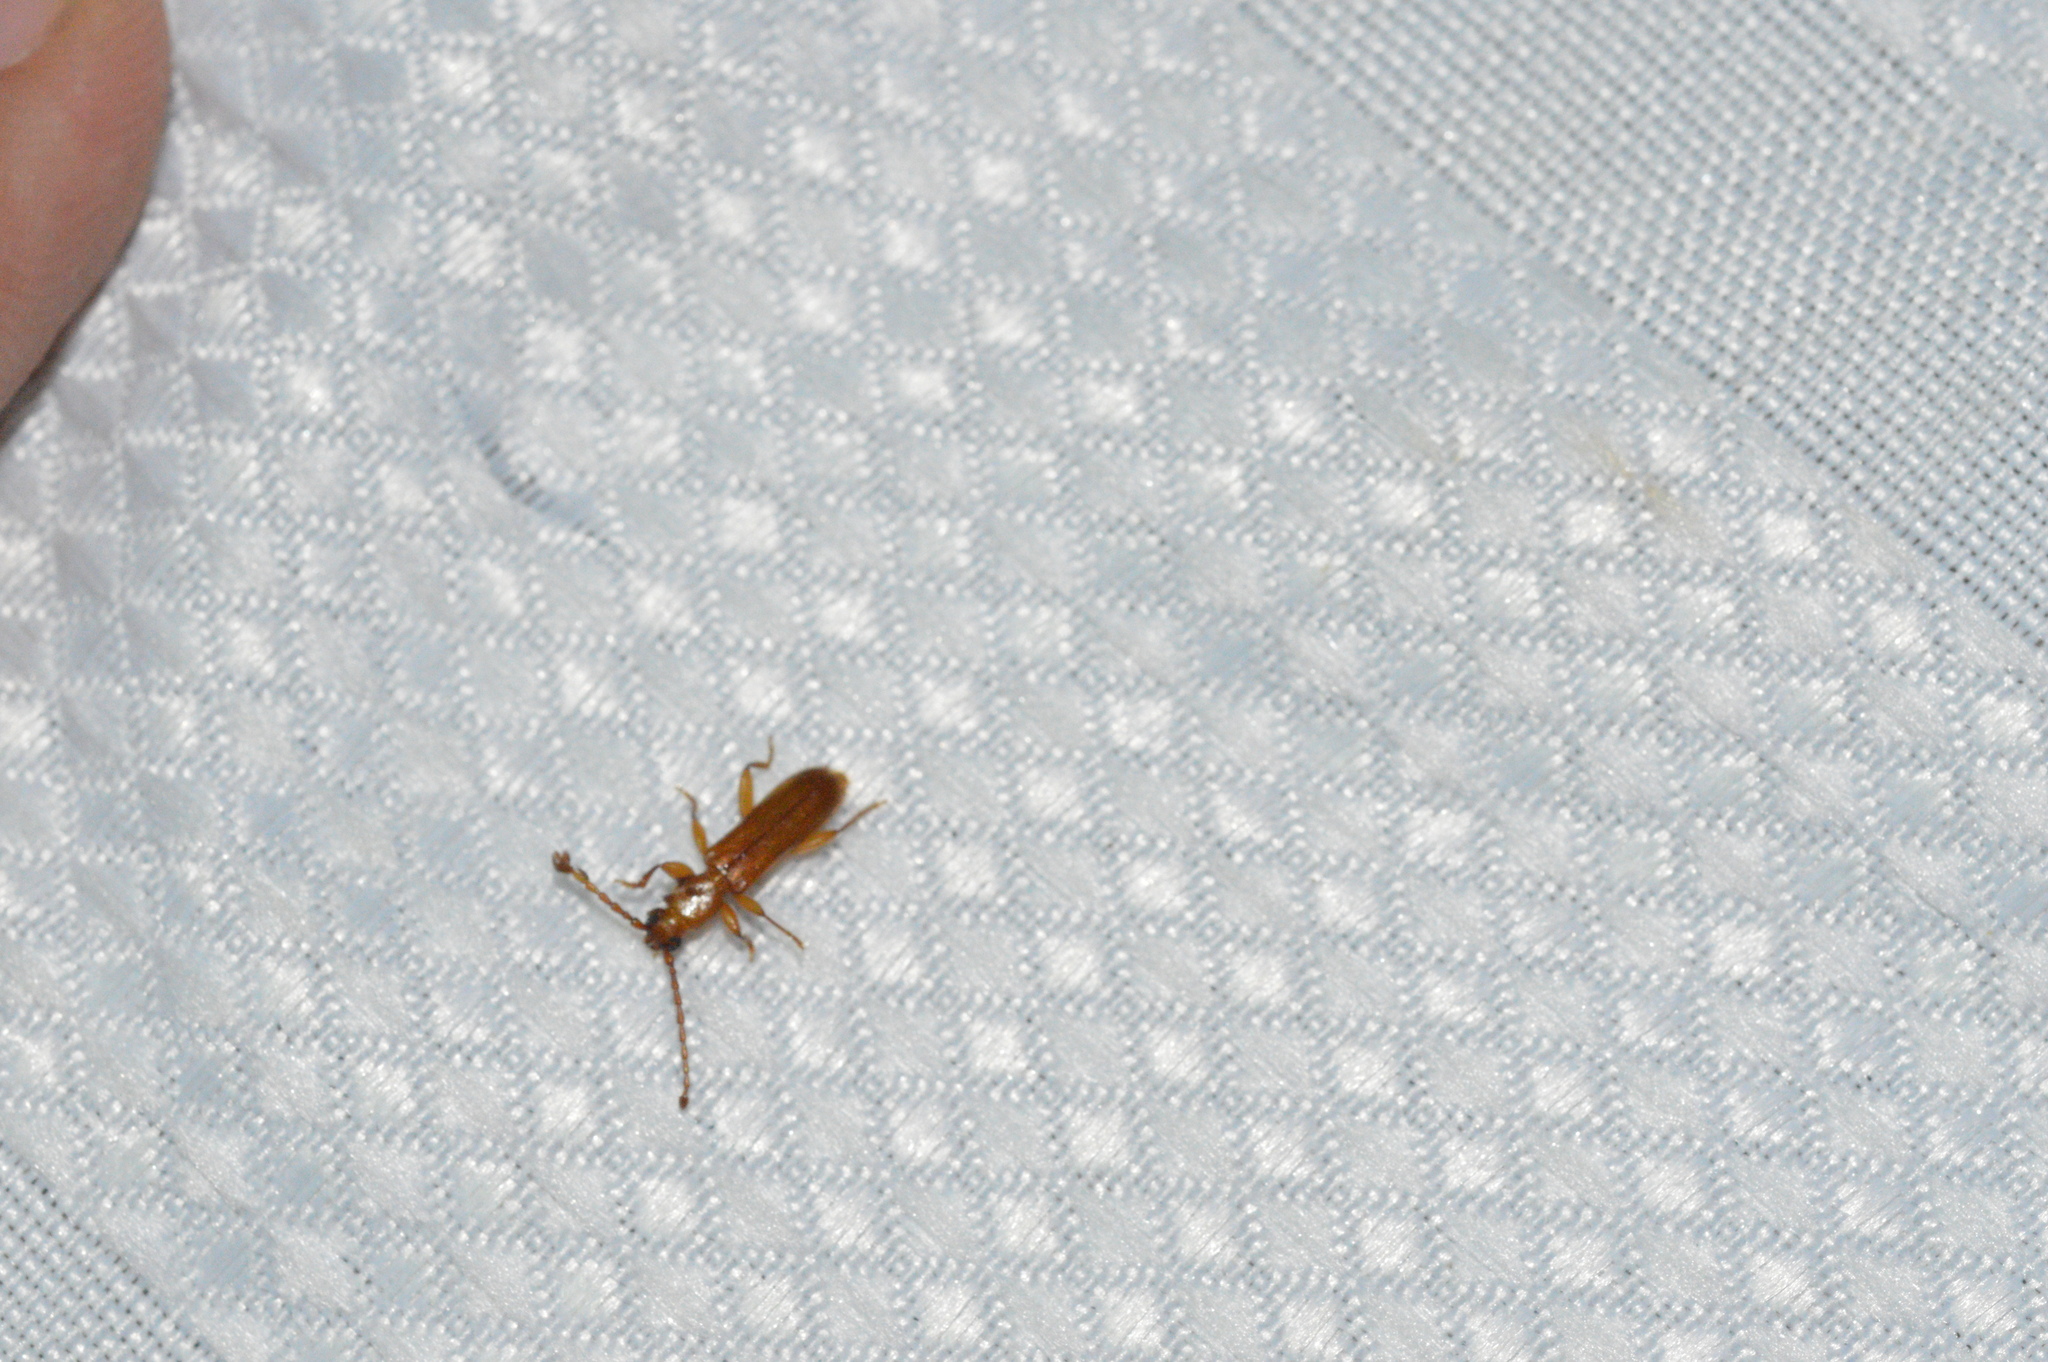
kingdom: Animalia
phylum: Arthropoda
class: Insecta
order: Coleoptera
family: Cerambycidae
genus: Smodicum
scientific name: Smodicum cucujiforme
